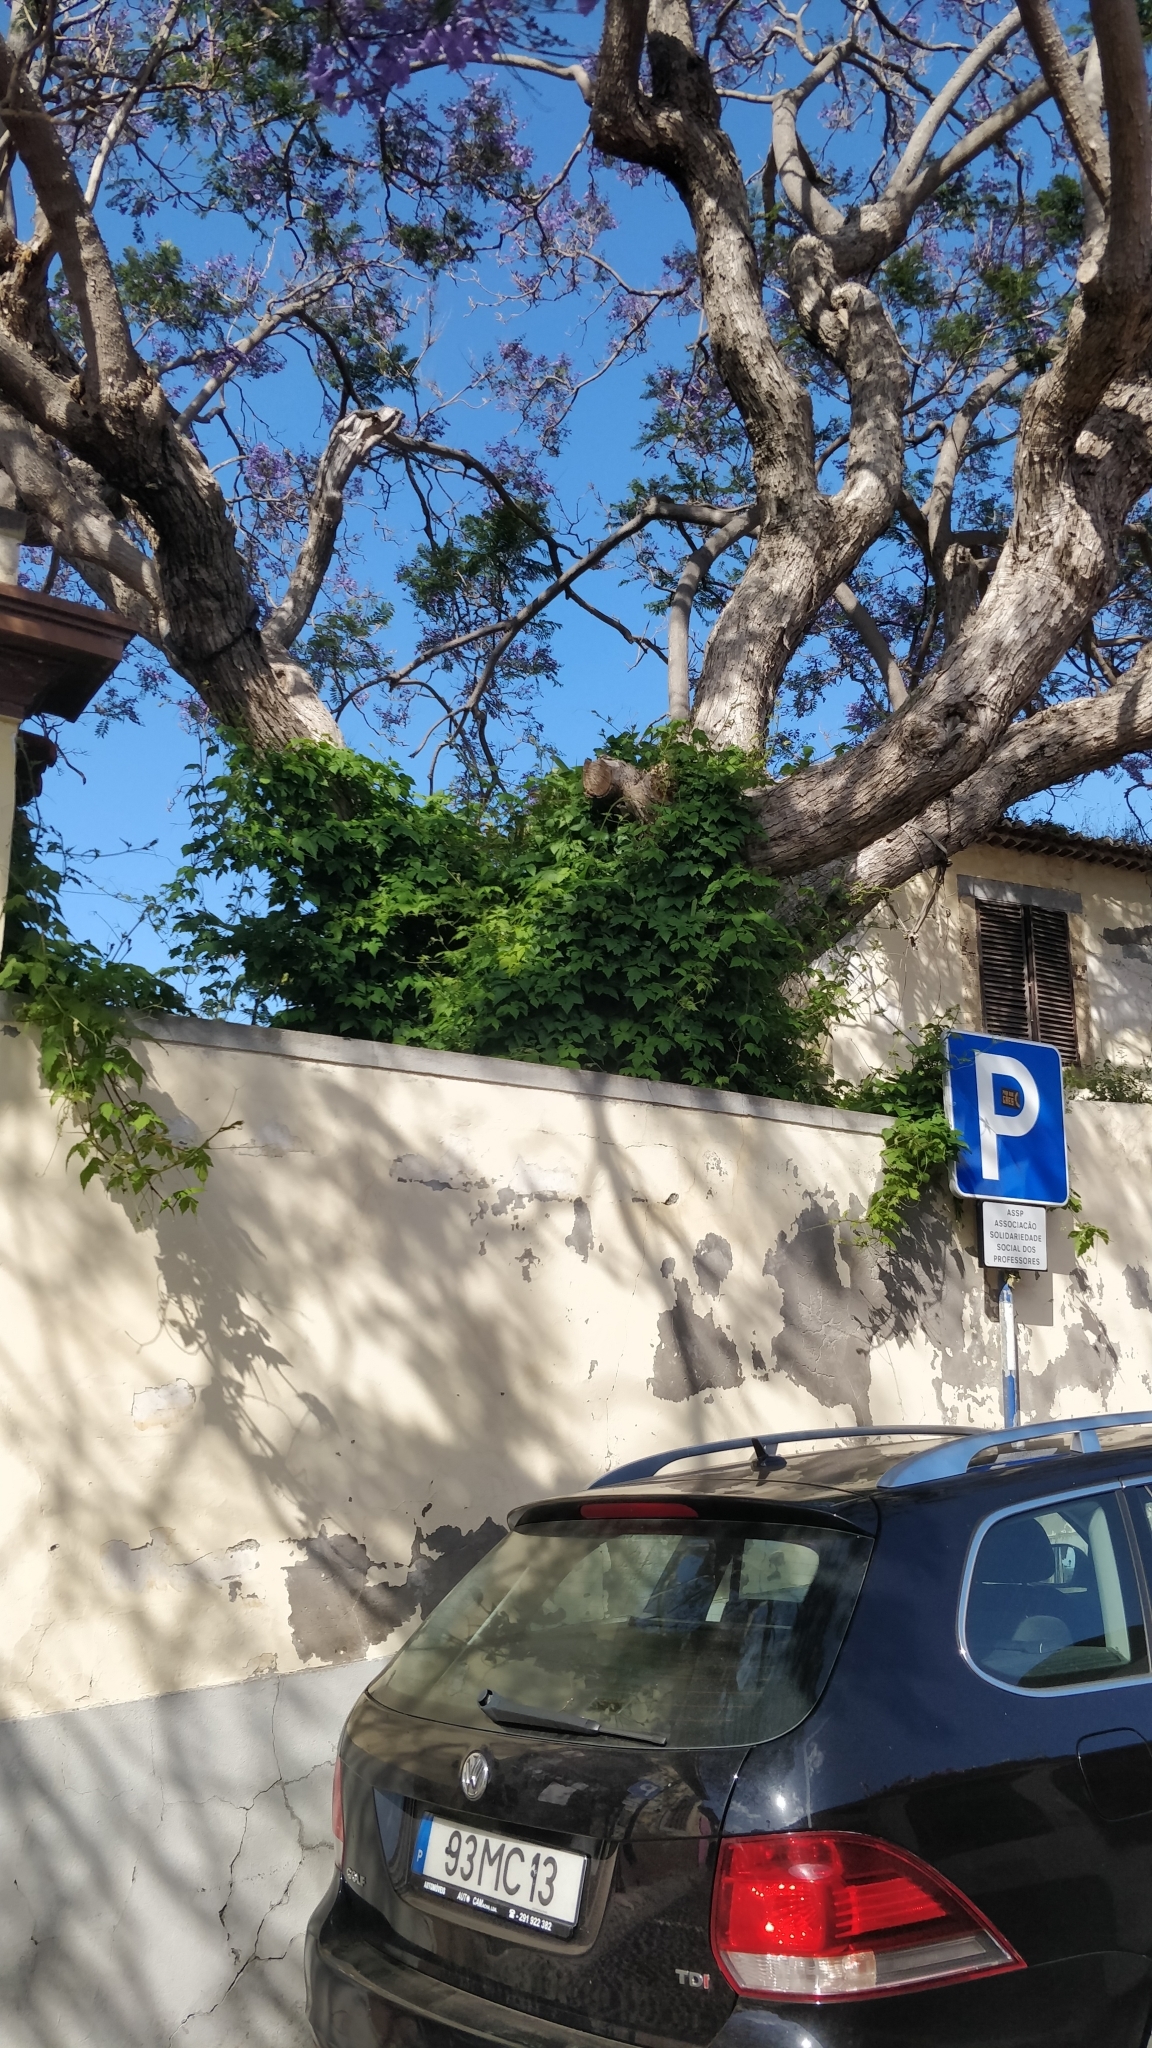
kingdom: Plantae
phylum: Tracheophyta
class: Magnoliopsida
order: Sapindales
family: Sapindaceae
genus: Cardiospermum
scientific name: Cardiospermum grandiflorum
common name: Balloon vine
